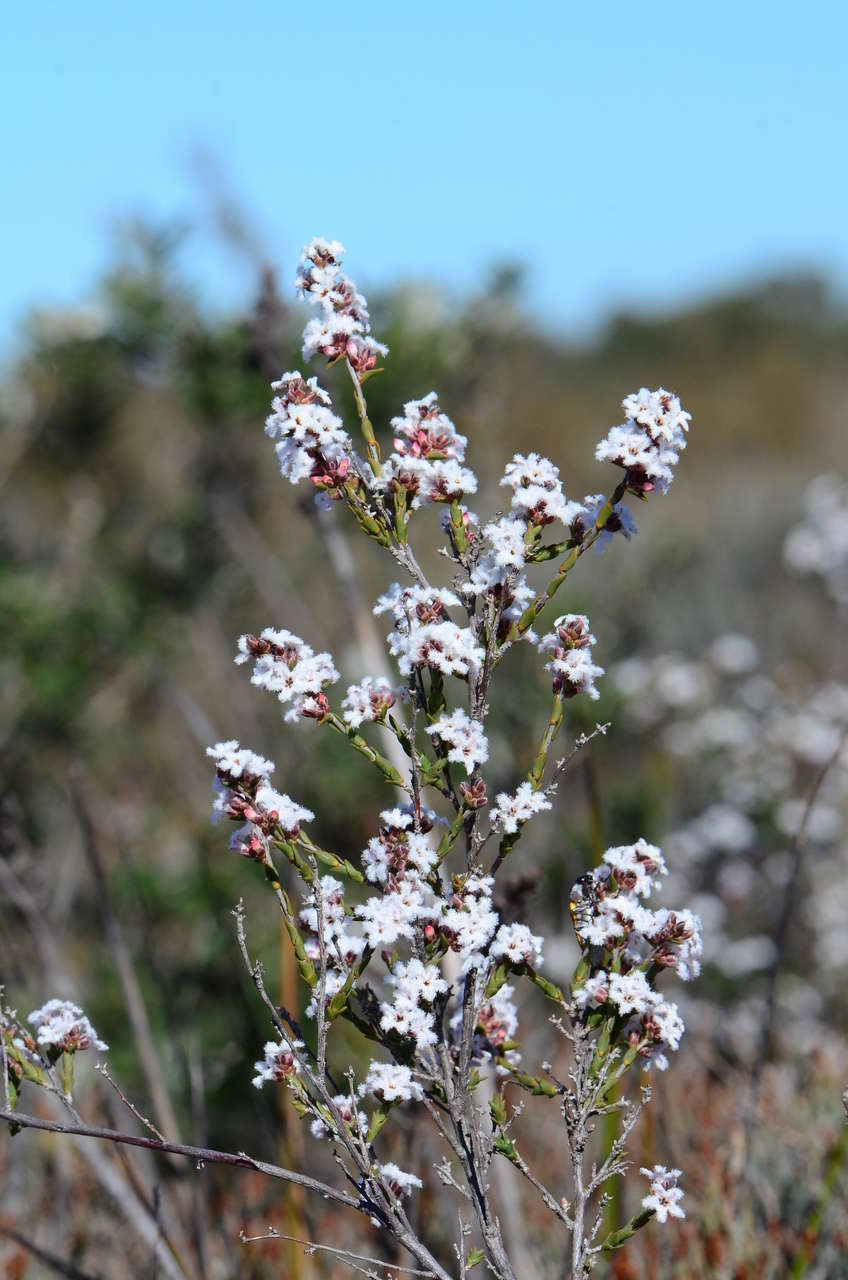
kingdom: Plantae
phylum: Tracheophyta
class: Magnoliopsida
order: Ericales
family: Ericaceae
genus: Leucopogon
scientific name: Leucopogon virgatus
